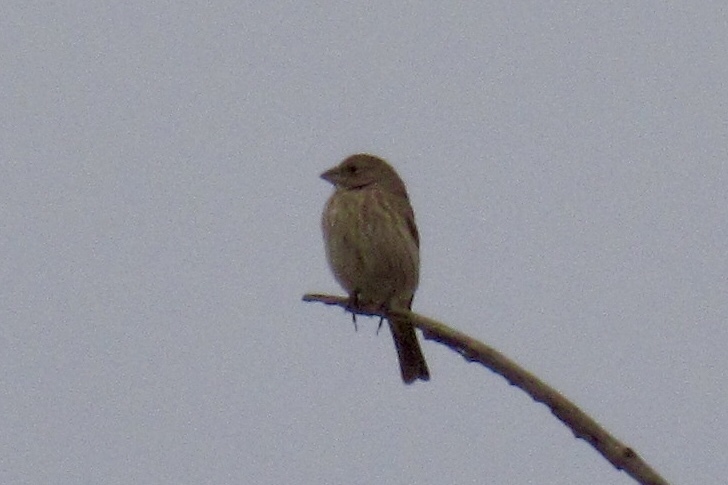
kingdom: Animalia
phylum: Chordata
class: Aves
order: Passeriformes
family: Fringillidae
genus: Haemorhous
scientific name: Haemorhous mexicanus
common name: House finch
